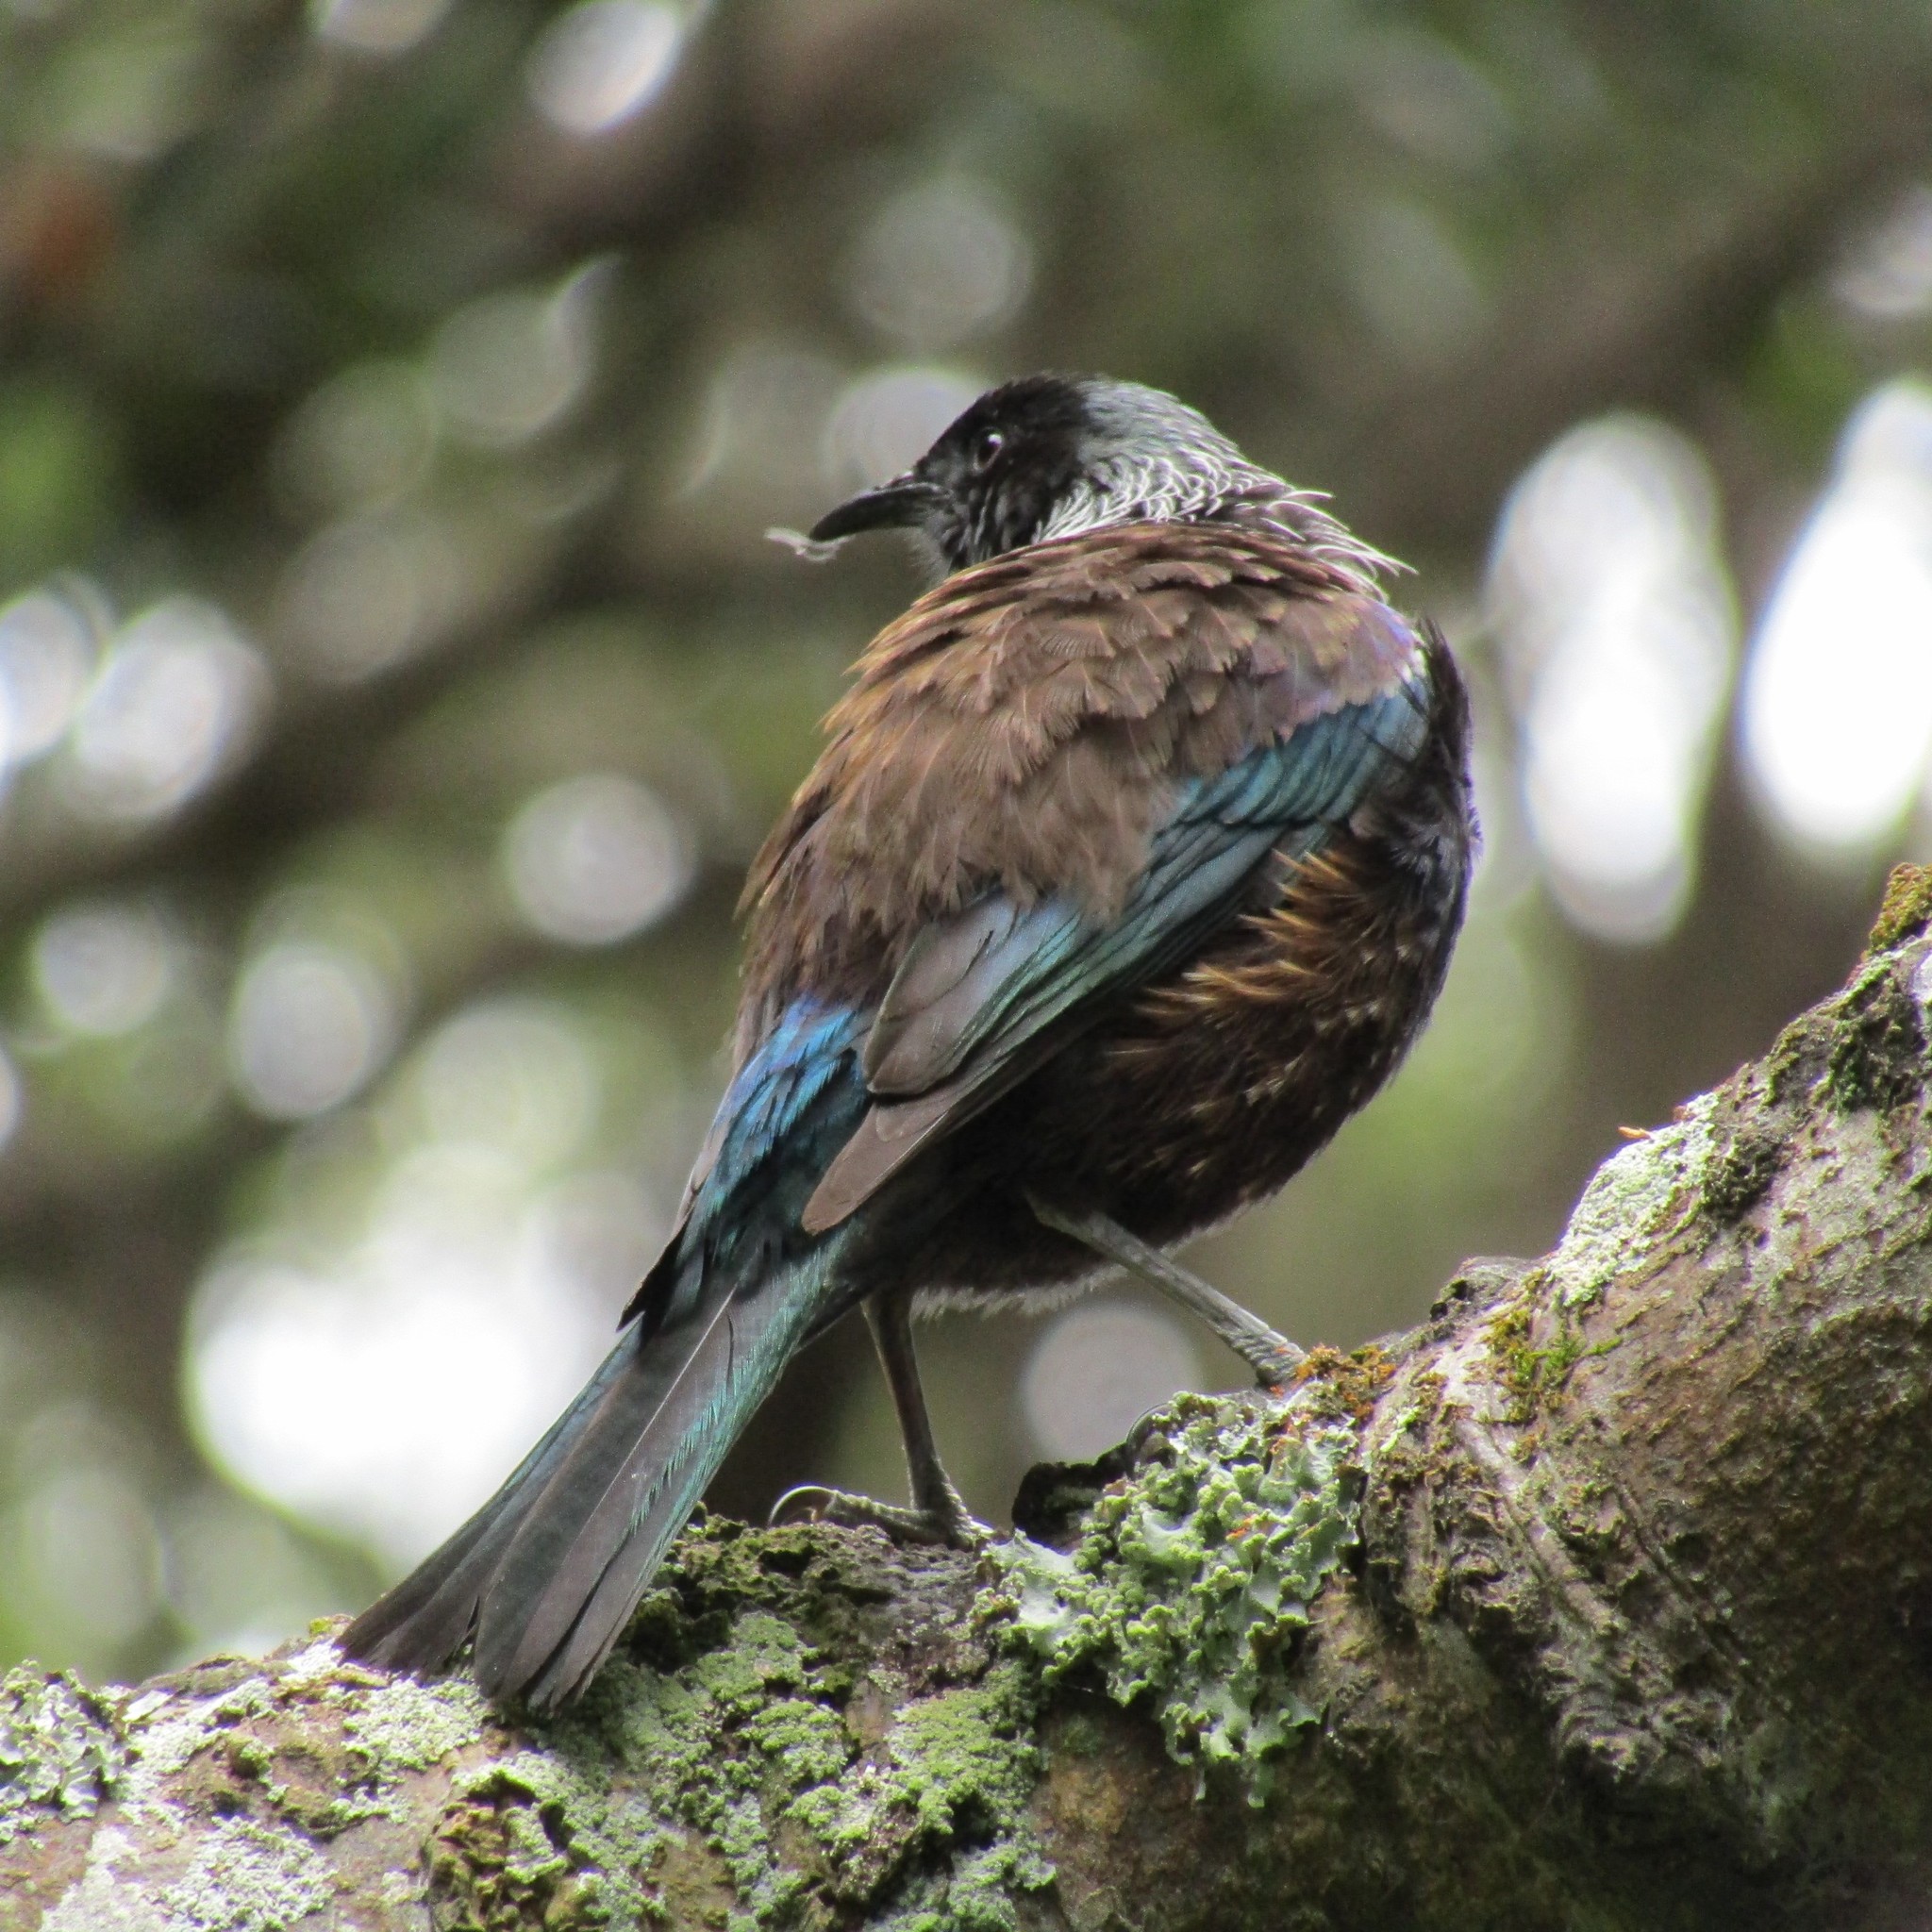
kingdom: Animalia
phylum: Chordata
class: Aves
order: Passeriformes
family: Meliphagidae
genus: Prosthemadera
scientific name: Prosthemadera novaeseelandiae
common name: Tui
